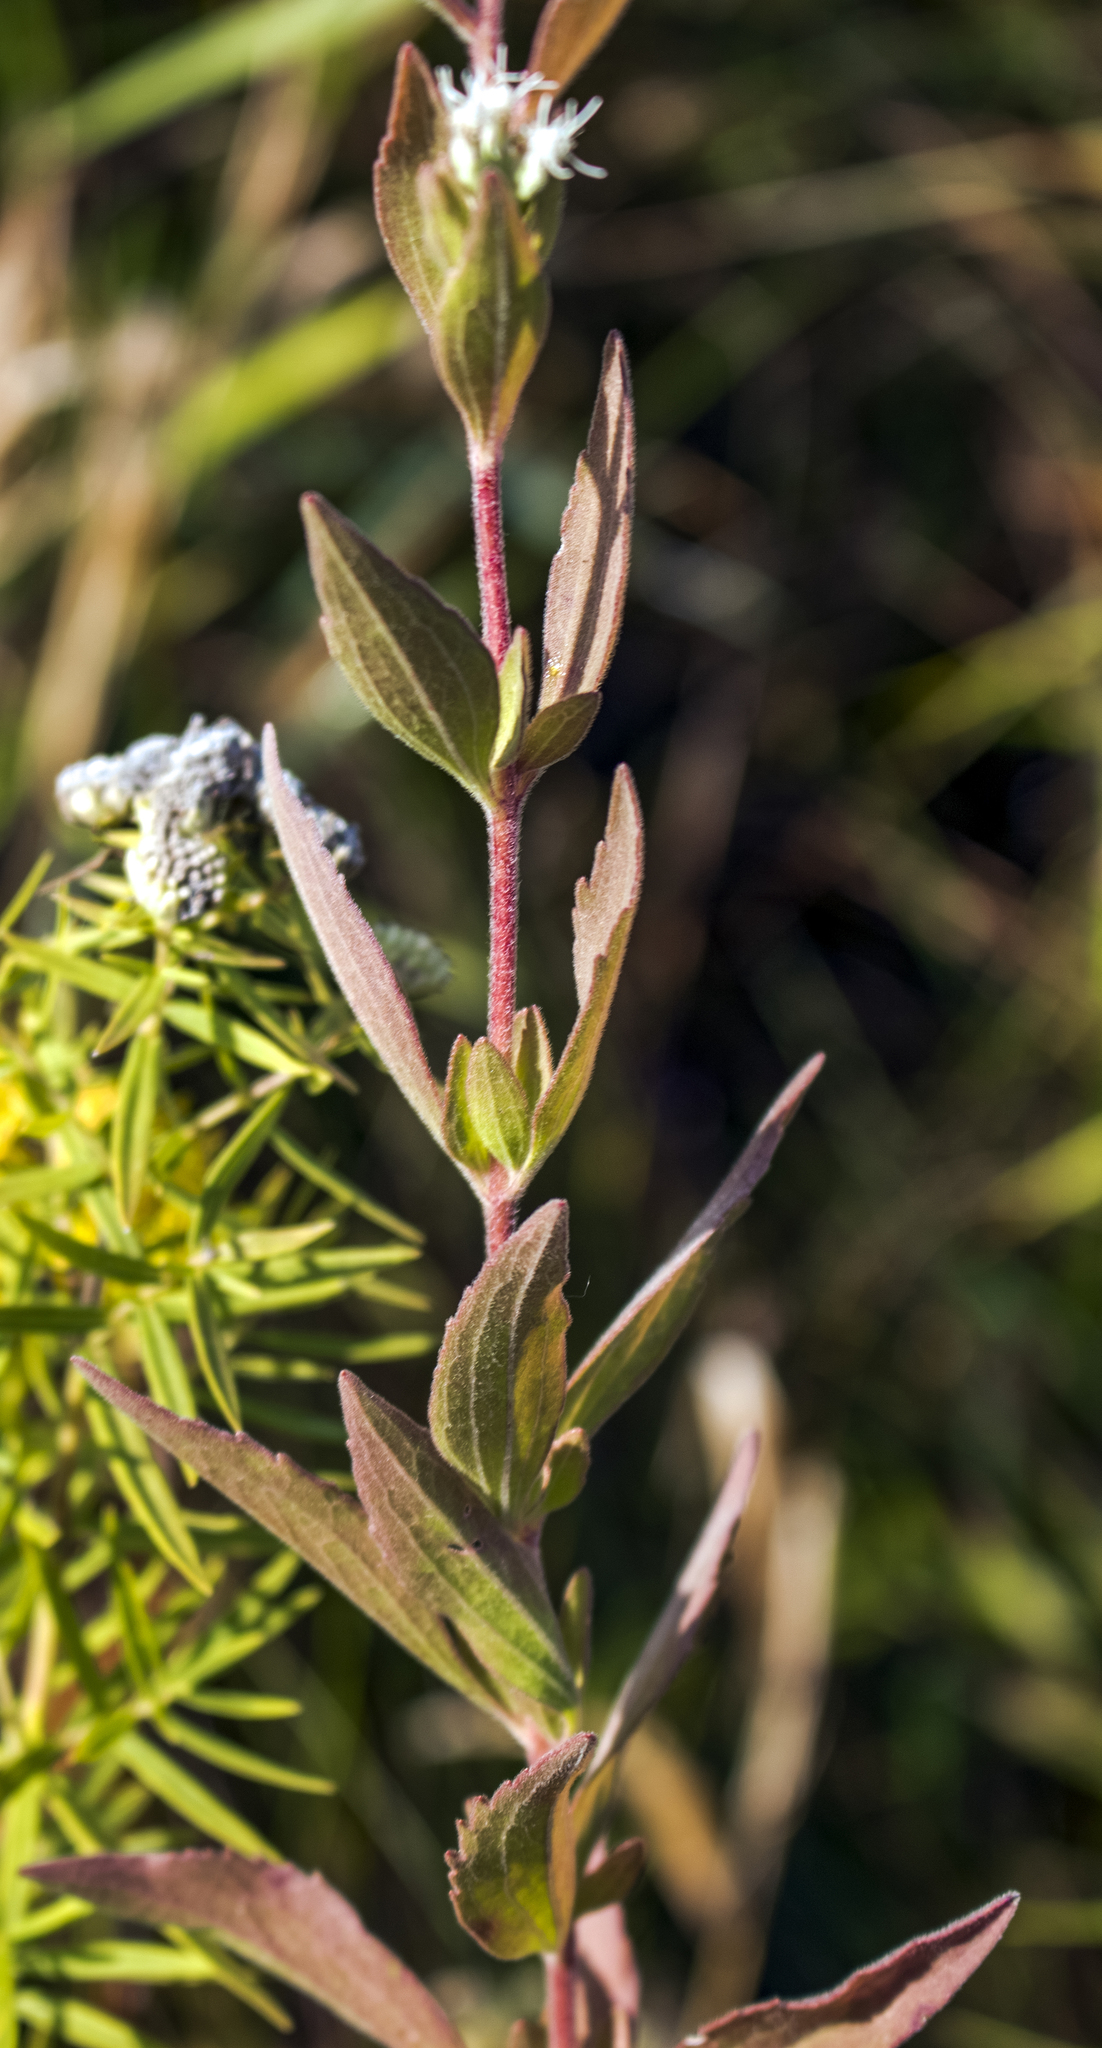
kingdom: Plantae
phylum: Tracheophyta
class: Magnoliopsida
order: Asterales
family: Asteraceae
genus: Eupatorium
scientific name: Eupatorium altissimum
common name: Tall thoroughwort
